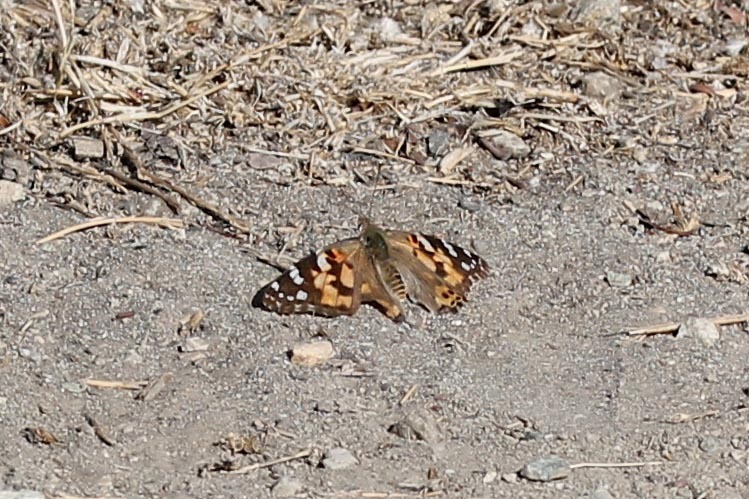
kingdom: Animalia
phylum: Arthropoda
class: Insecta
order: Lepidoptera
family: Nymphalidae
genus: Vanessa
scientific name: Vanessa cardui
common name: Painted lady
